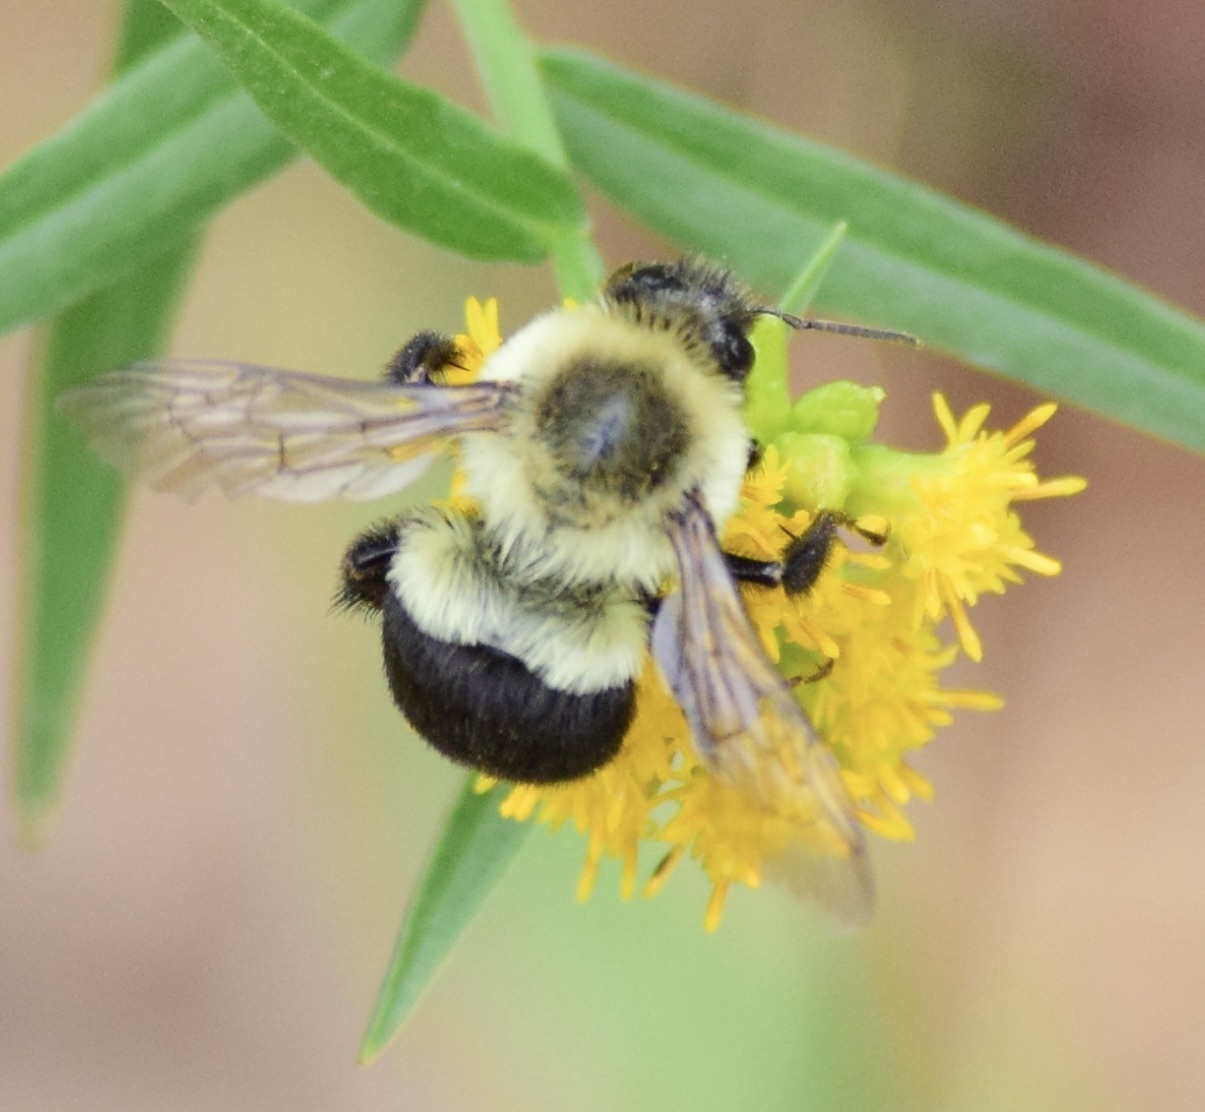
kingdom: Animalia
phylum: Arthropoda
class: Insecta
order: Hymenoptera
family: Apidae
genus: Bombus
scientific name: Bombus impatiens
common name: Common eastern bumble bee
